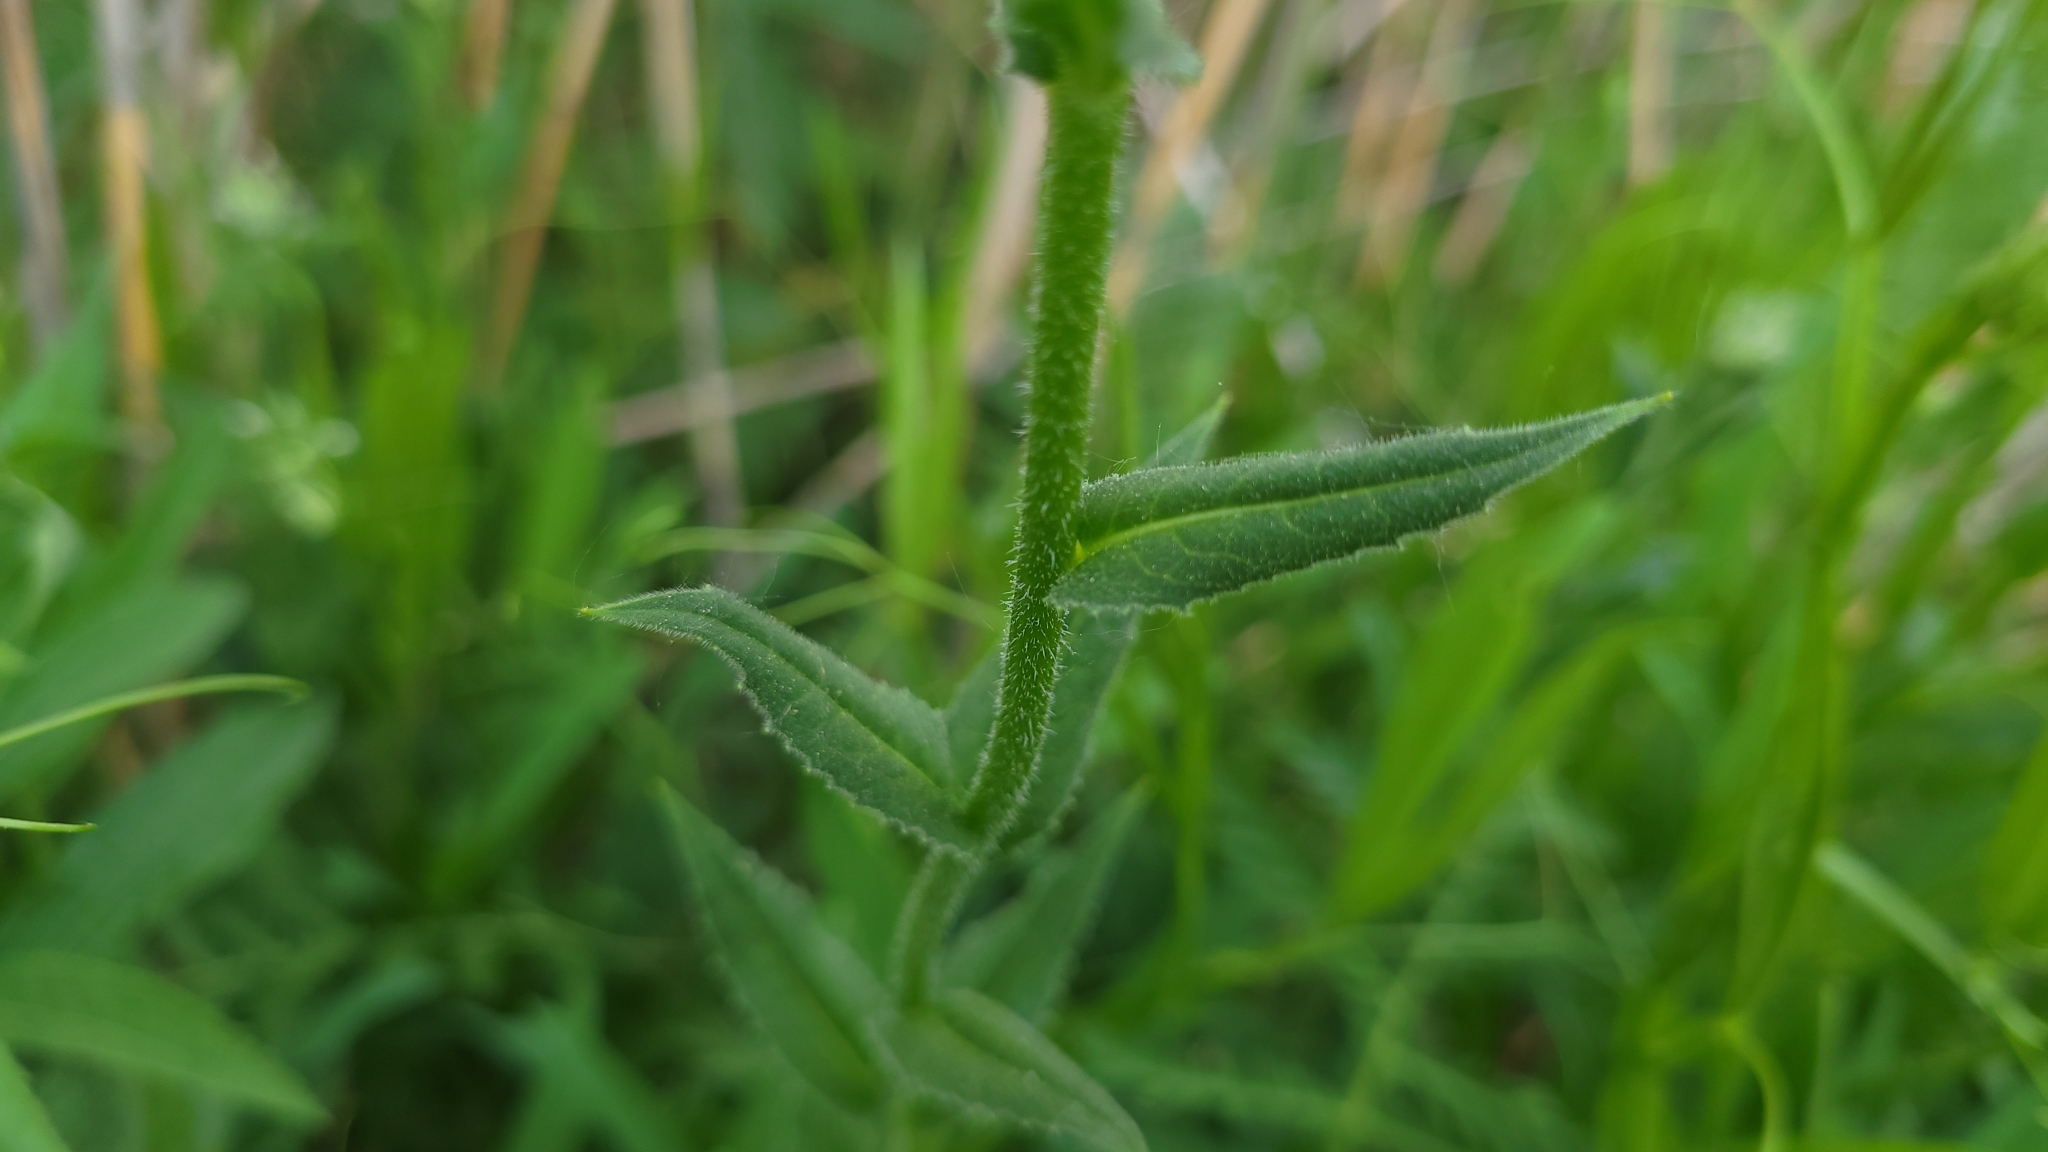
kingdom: Plantae
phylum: Tracheophyta
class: Magnoliopsida
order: Brassicales
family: Brassicaceae
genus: Hesperis
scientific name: Hesperis matronalis
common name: Dame's-violet
